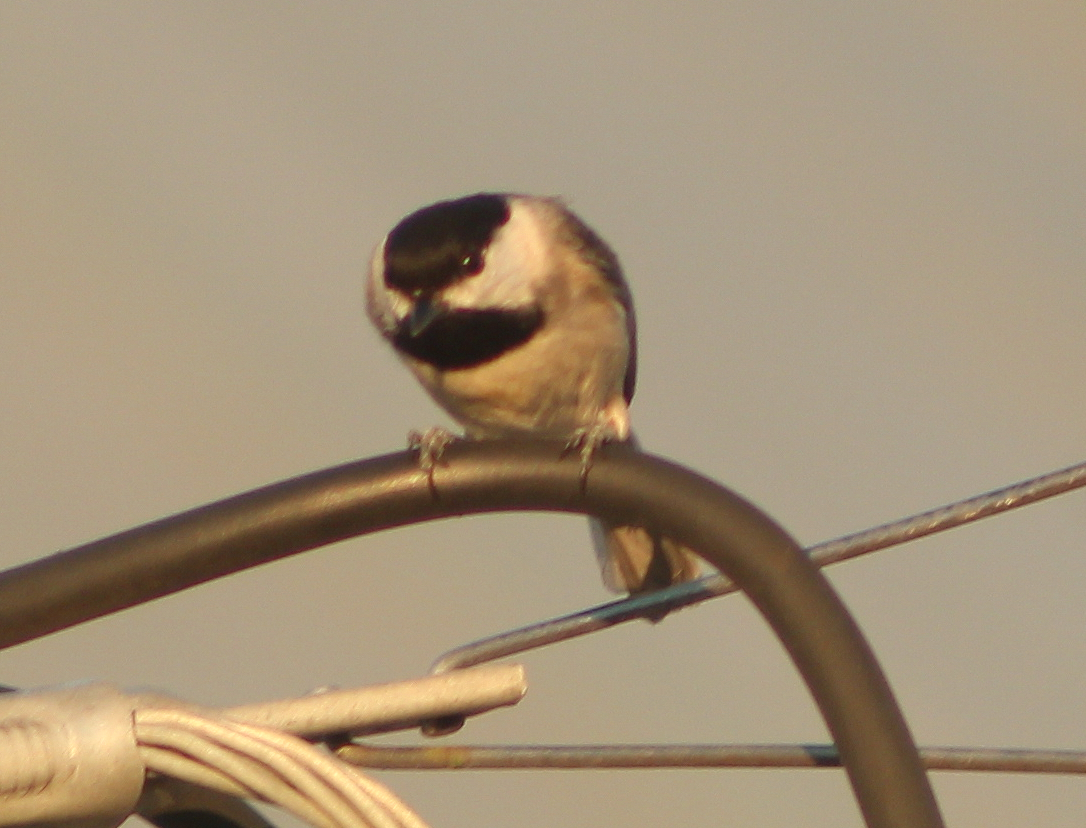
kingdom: Animalia
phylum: Chordata
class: Aves
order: Passeriformes
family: Paridae
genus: Poecile
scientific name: Poecile carolinensis
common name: Carolina chickadee
